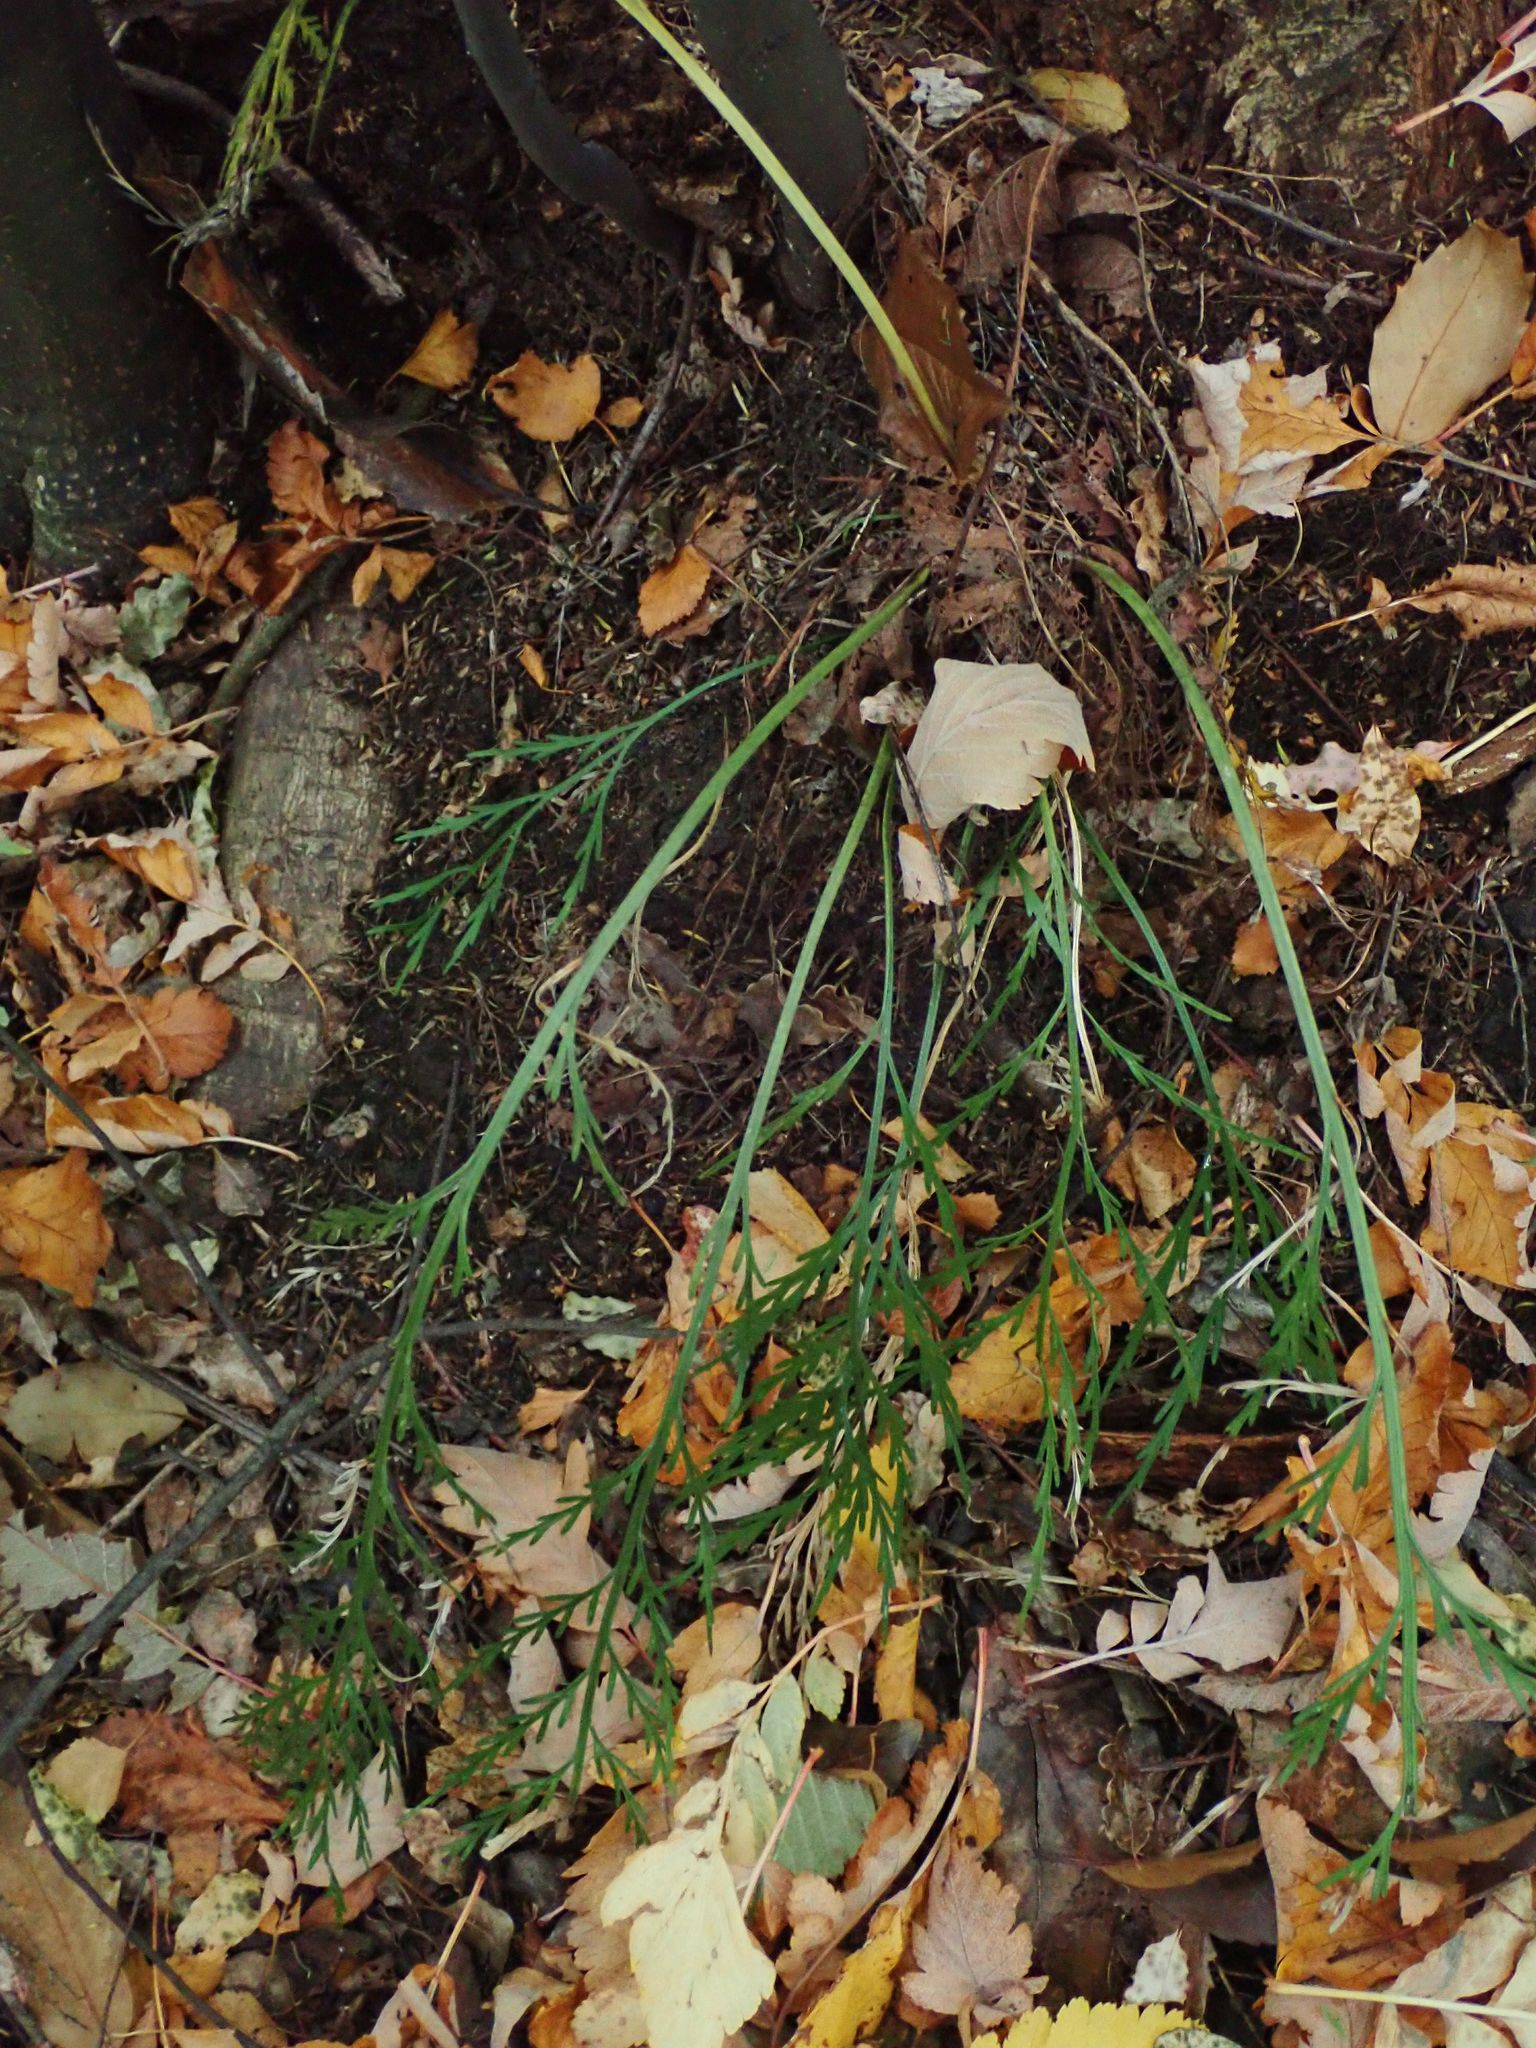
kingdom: Plantae
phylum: Tracheophyta
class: Polypodiopsida
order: Polypodiales
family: Aspleniaceae
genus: Asplenium
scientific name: Asplenium flaccidum
